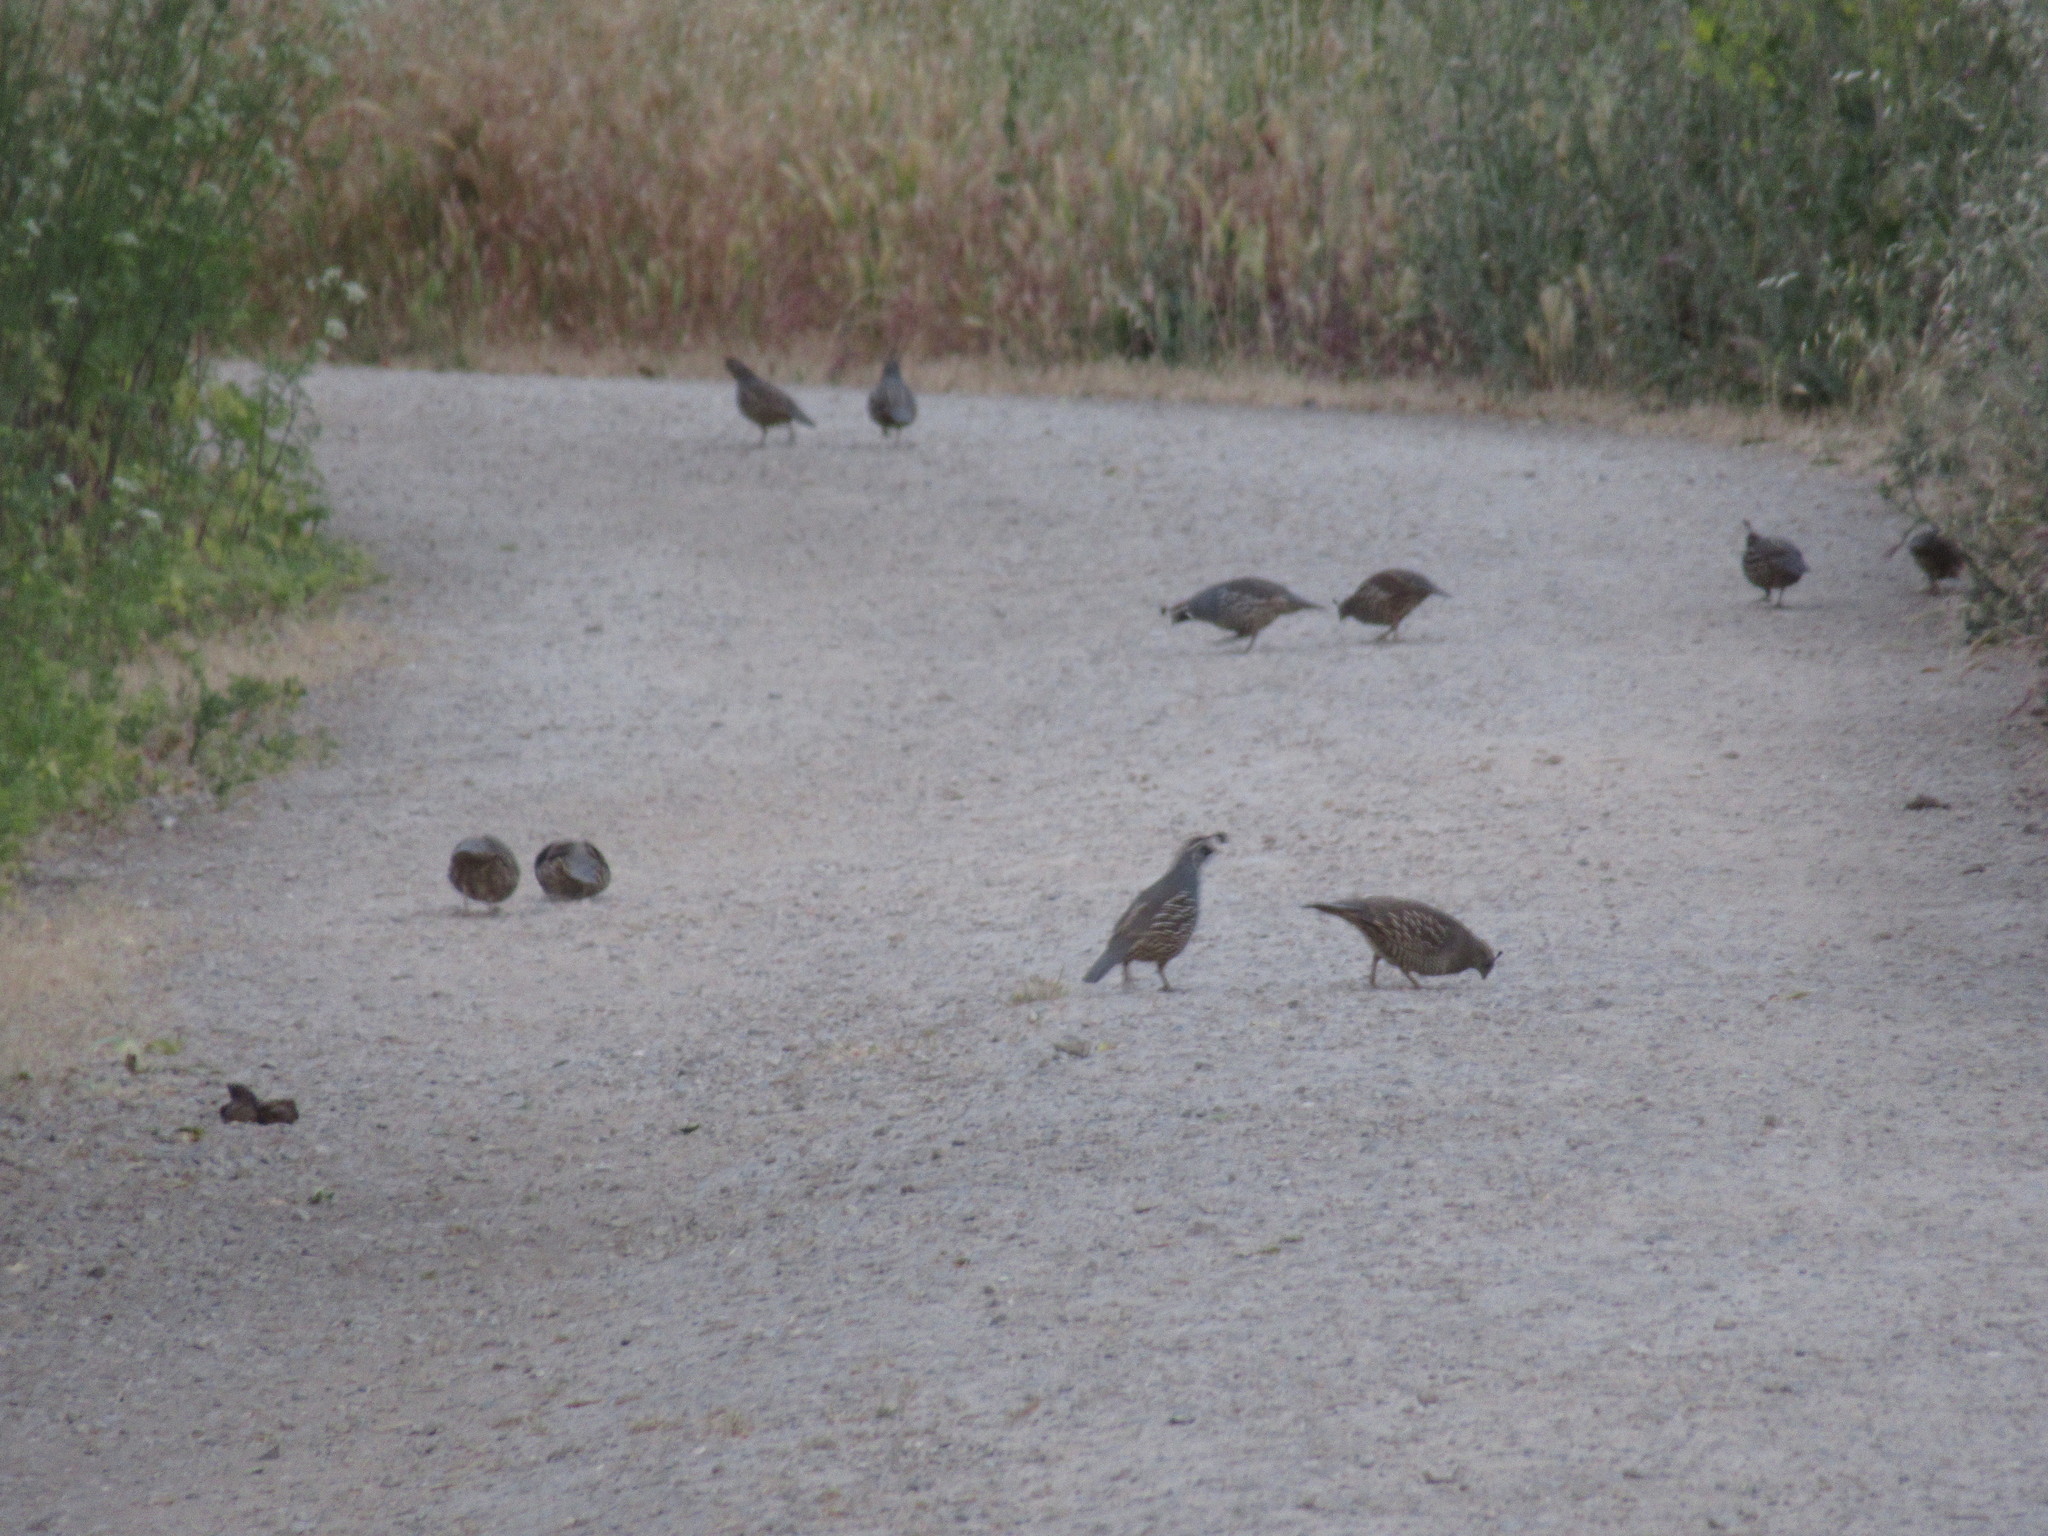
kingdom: Animalia
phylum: Chordata
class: Aves
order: Galliformes
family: Odontophoridae
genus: Callipepla
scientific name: Callipepla californica
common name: California quail
